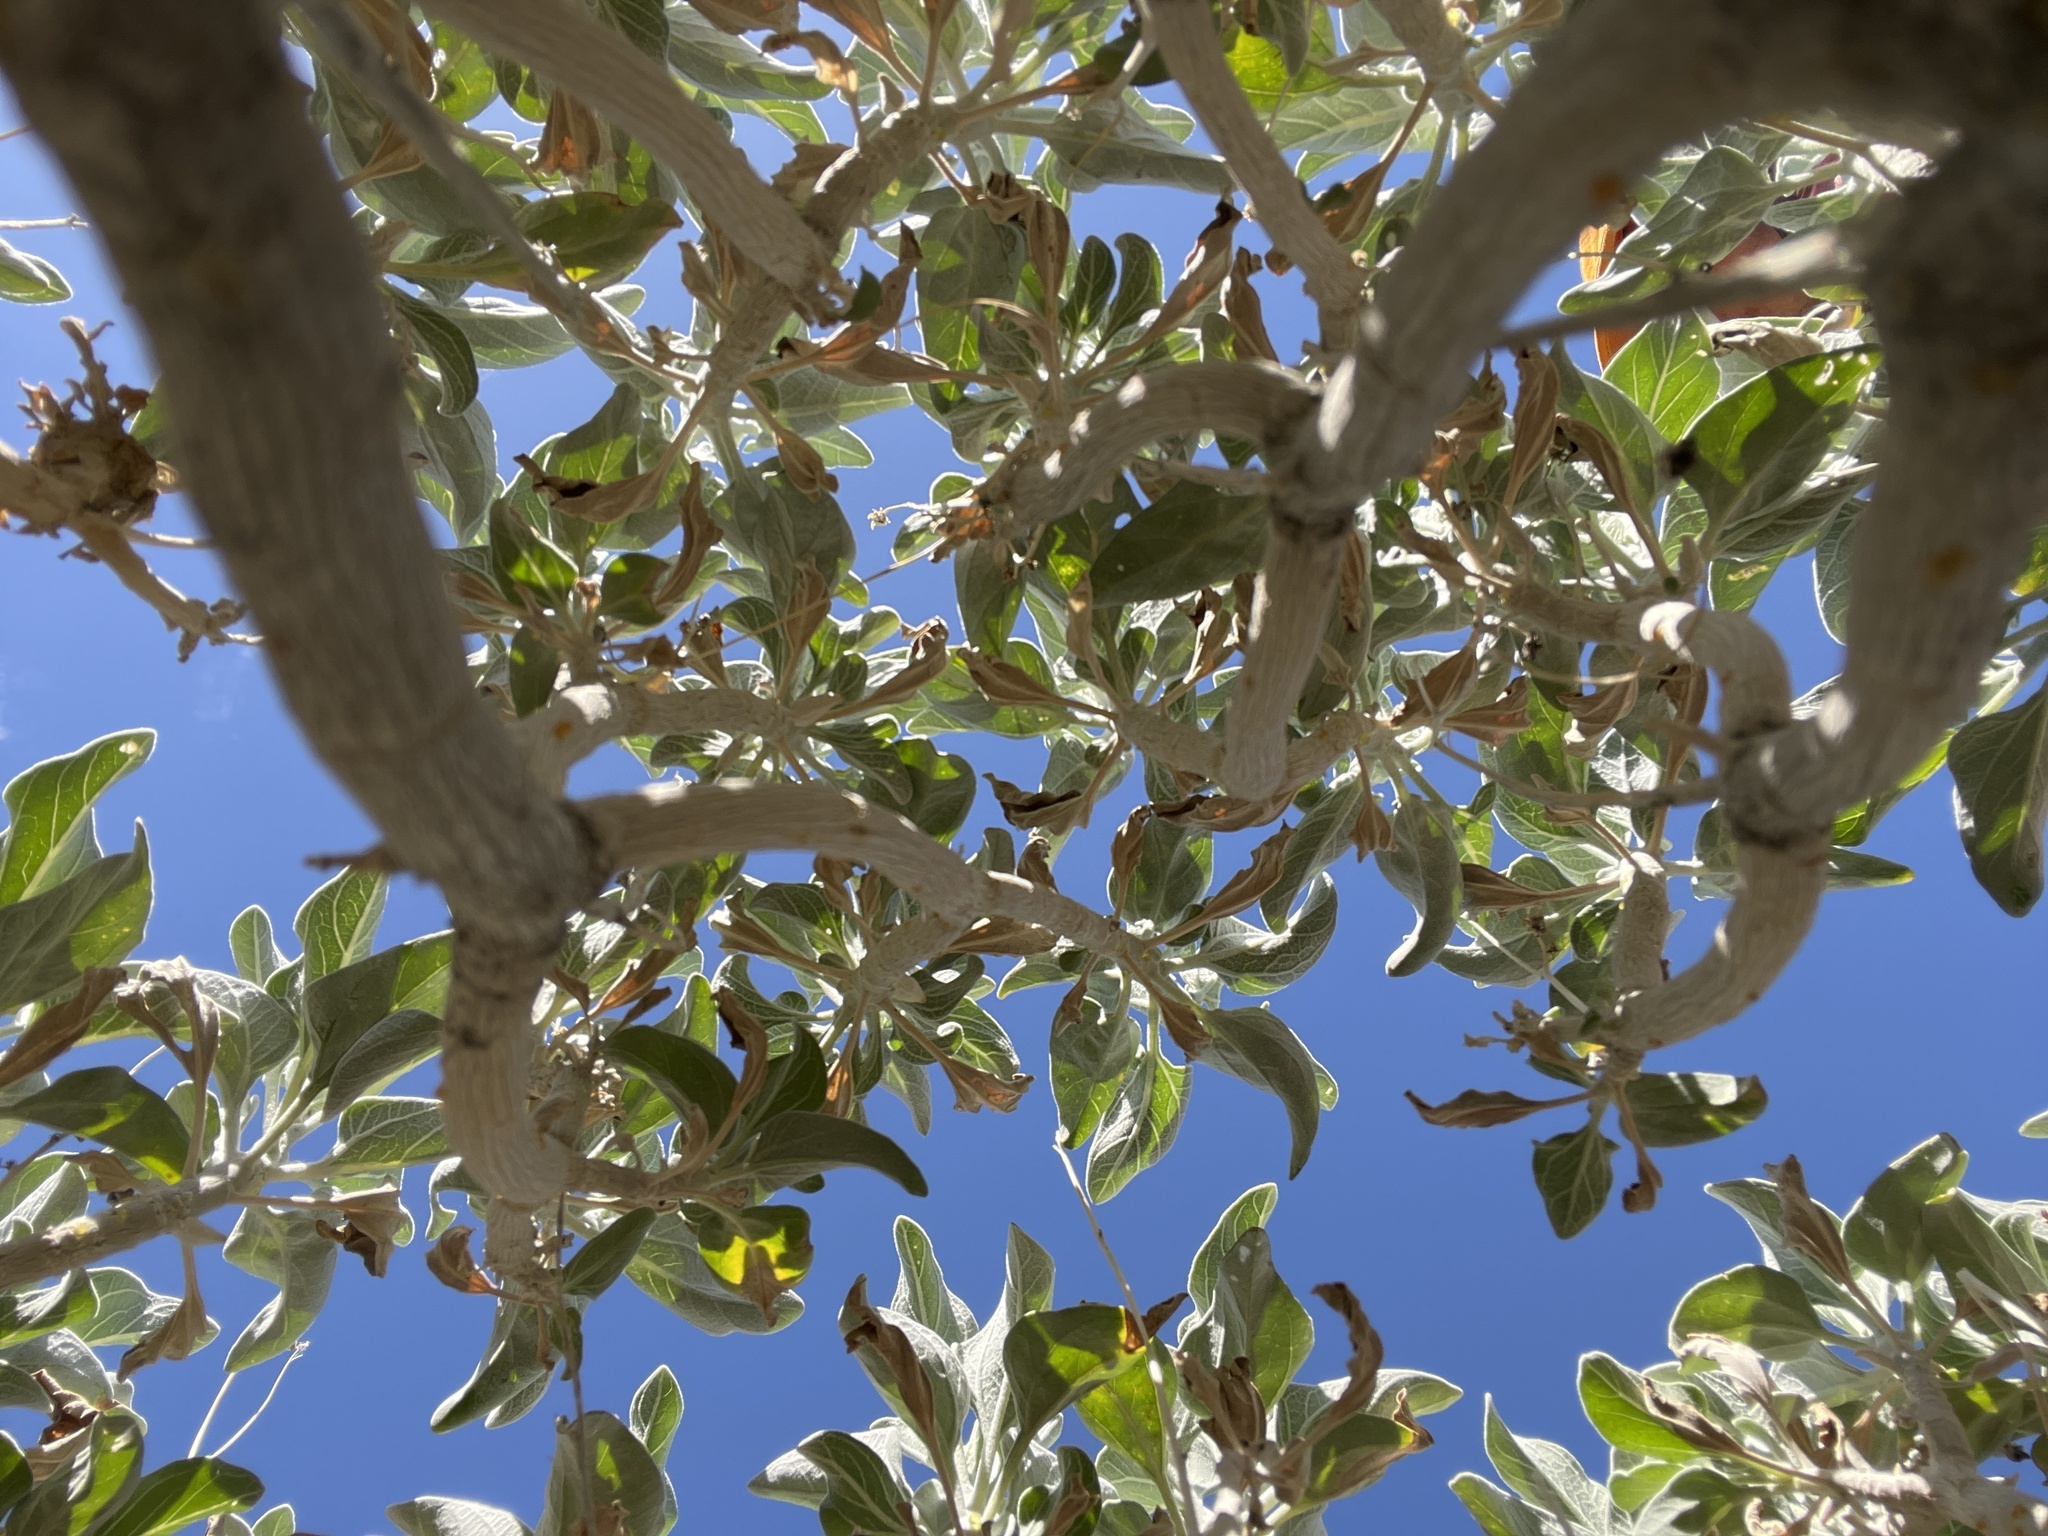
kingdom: Plantae
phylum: Tracheophyta
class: Magnoliopsida
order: Asterales
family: Asteraceae
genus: Encelia
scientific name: Encelia farinosa
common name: Brittlebush
